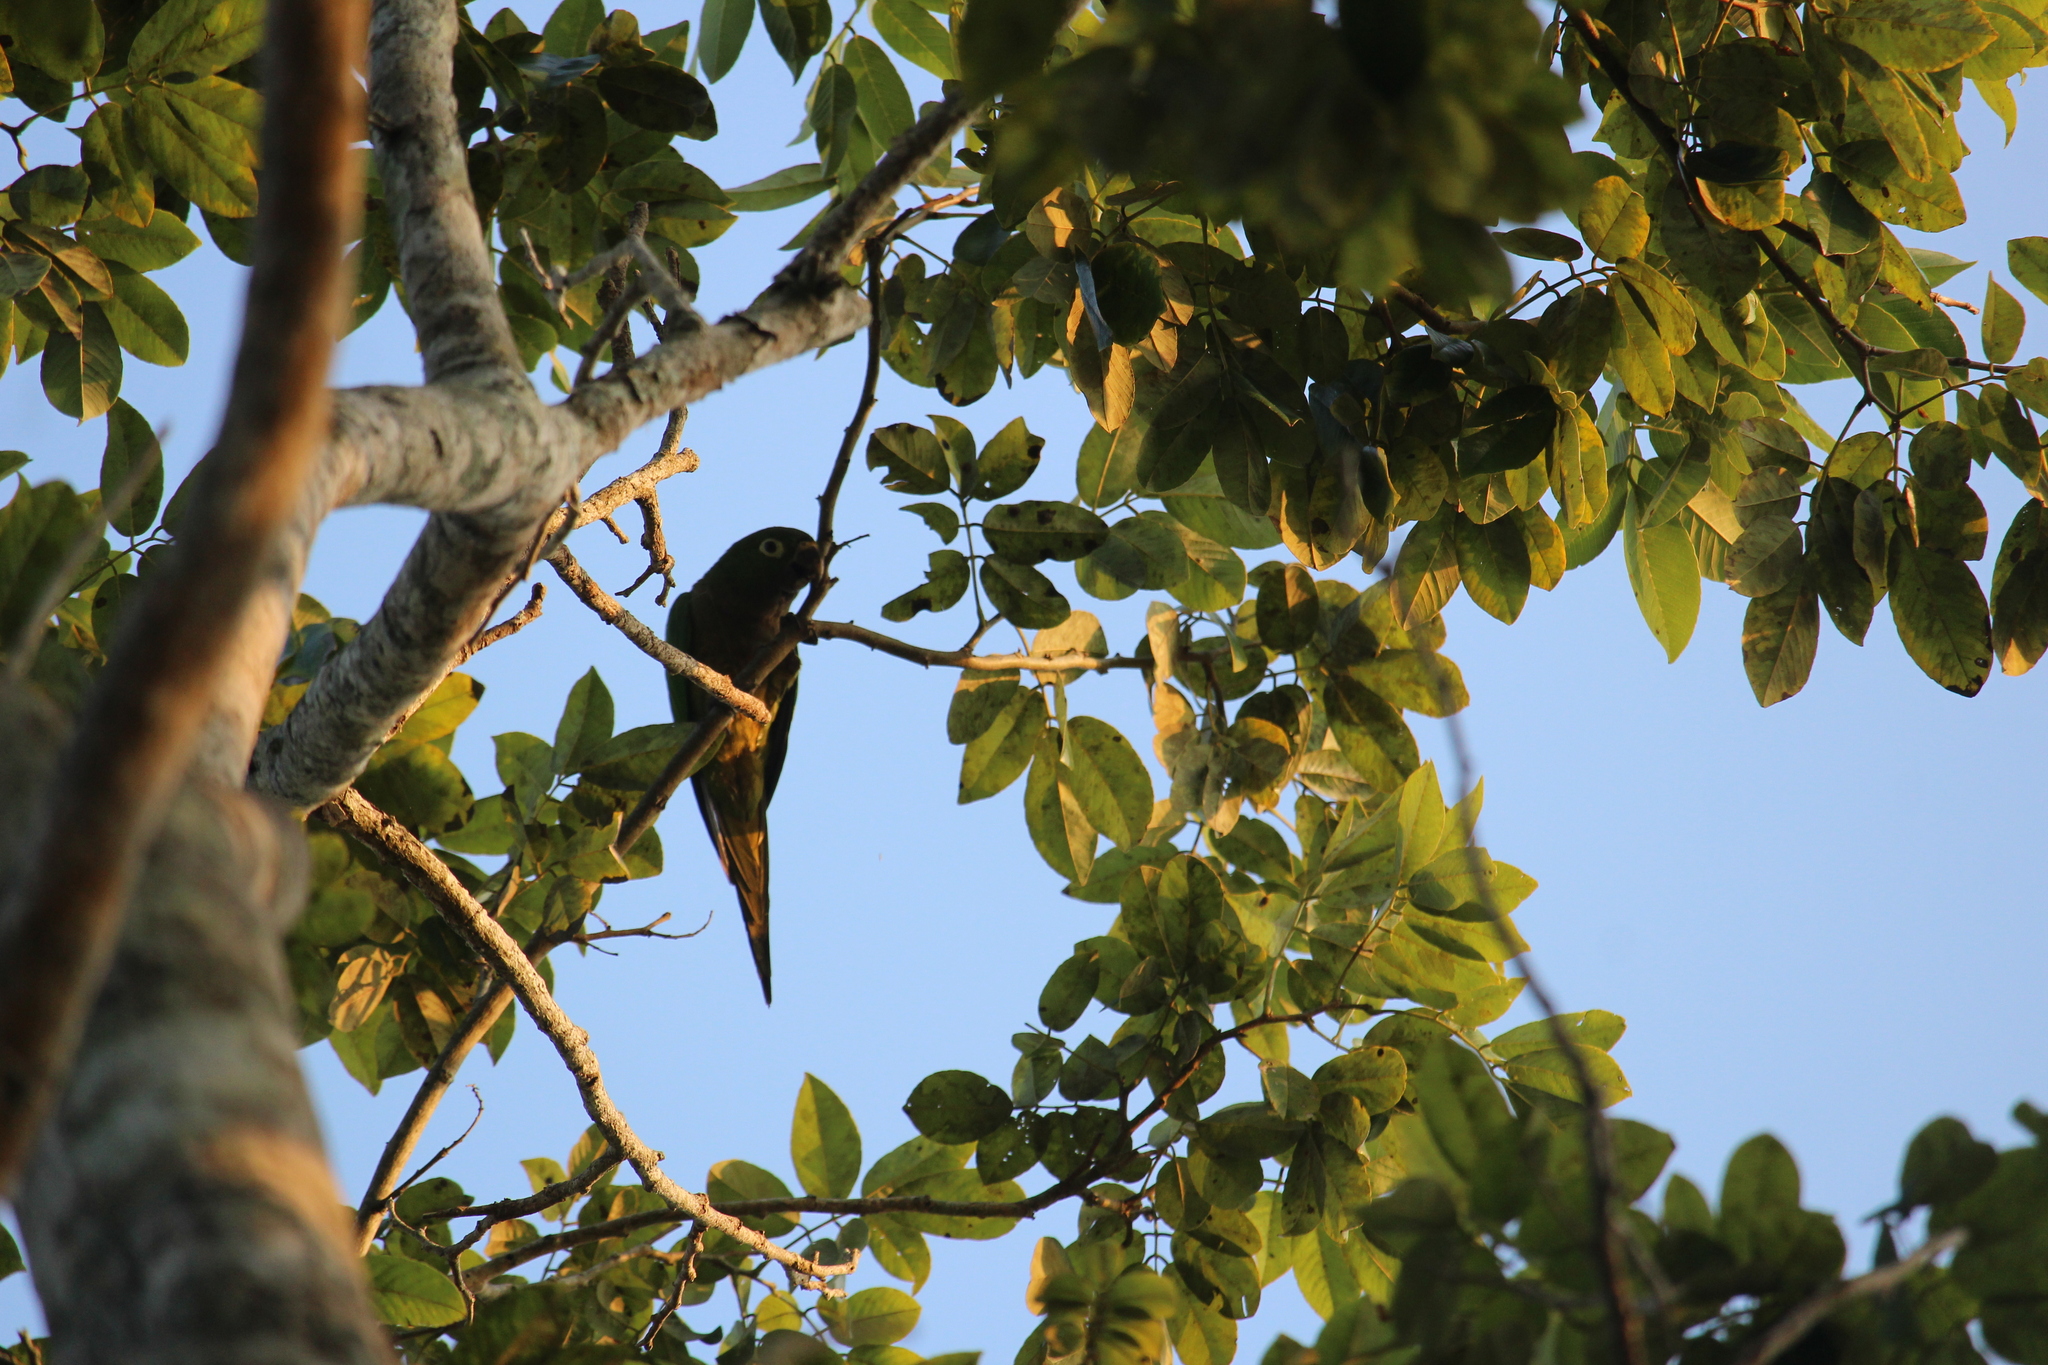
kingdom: Animalia
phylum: Chordata
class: Aves
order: Psittaciformes
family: Psittacidae
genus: Aratinga
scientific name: Aratinga nana
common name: Olive-throated parakeet
